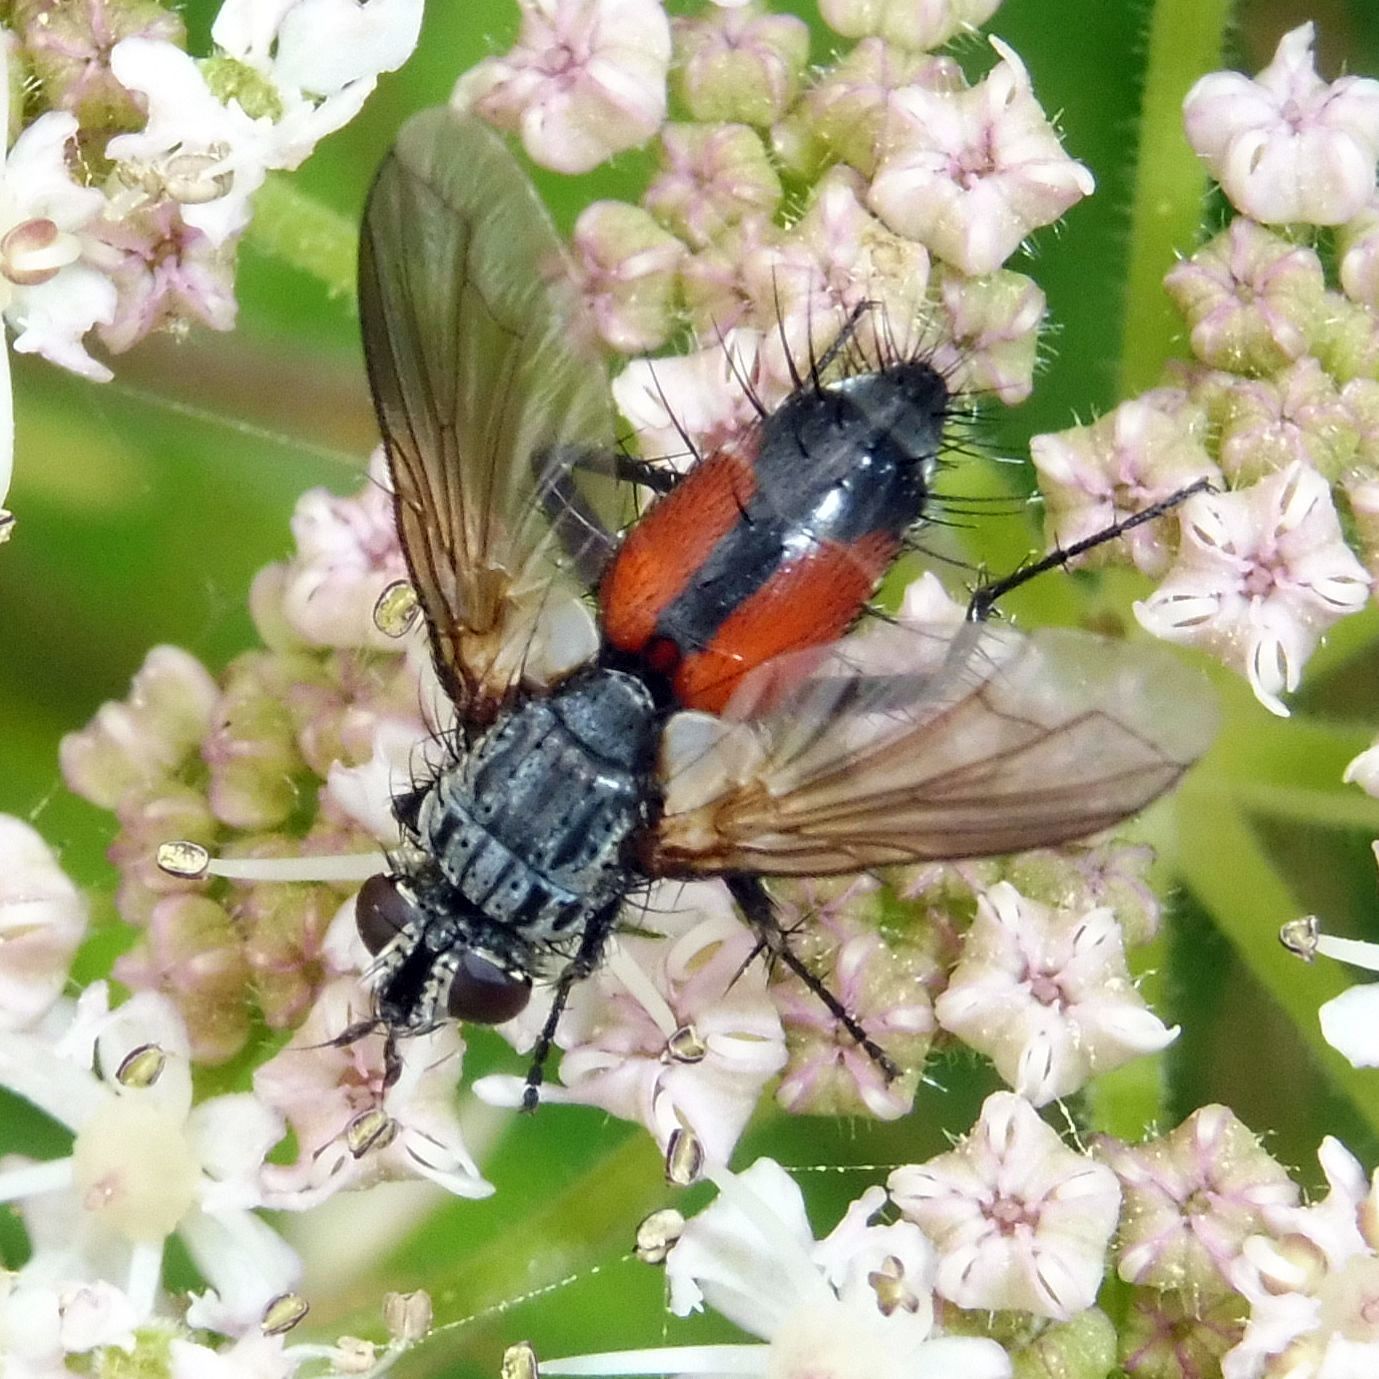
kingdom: Animalia
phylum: Arthropoda
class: Insecta
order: Diptera
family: Tachinidae
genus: Eriothrix
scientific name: Eriothrix rufomaculatus
